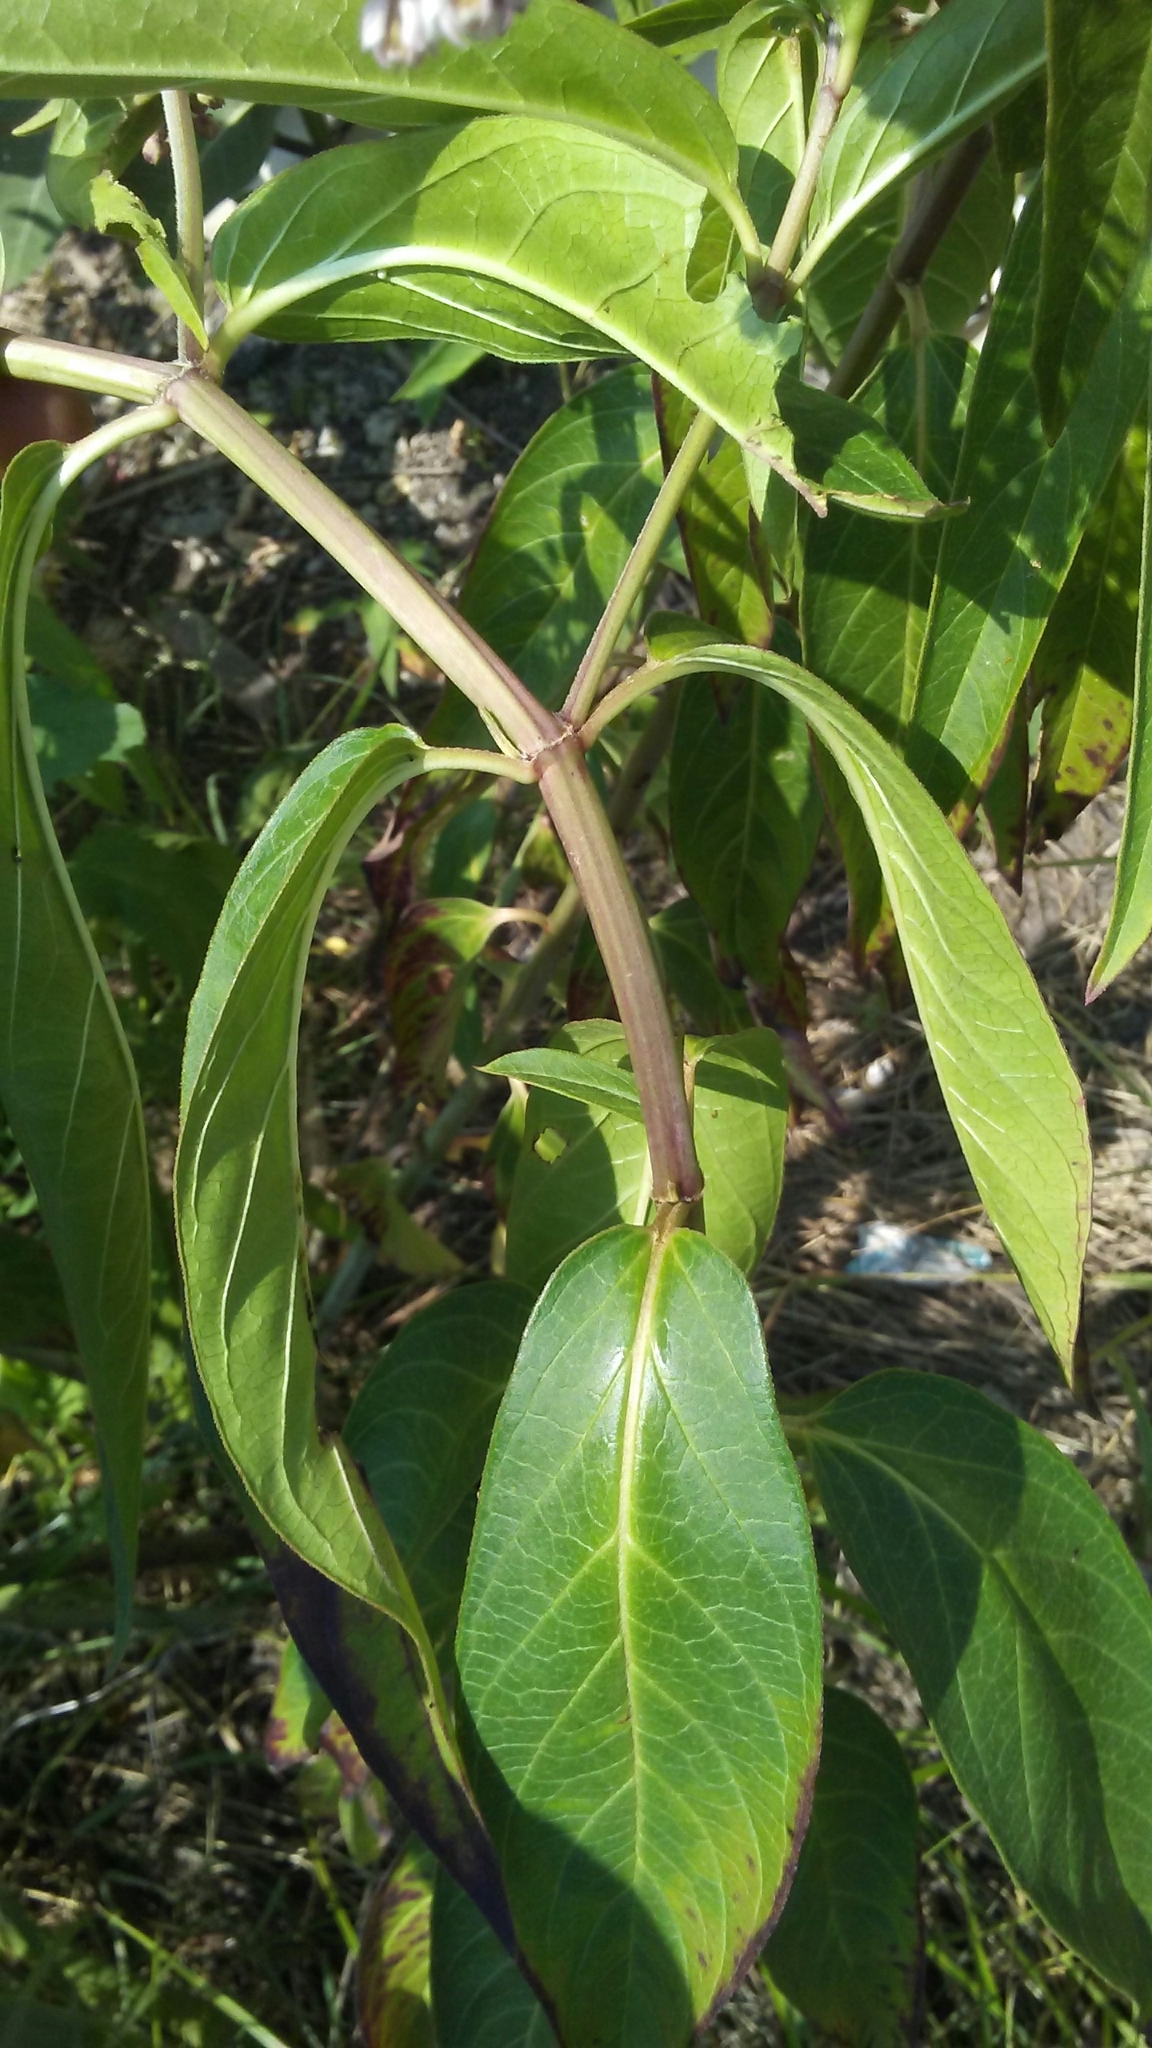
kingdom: Plantae
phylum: Tracheophyta
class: Magnoliopsida
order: Gentianales
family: Apocynaceae
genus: Asclepias
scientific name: Asclepias incarnata
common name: Swamp milkweed
